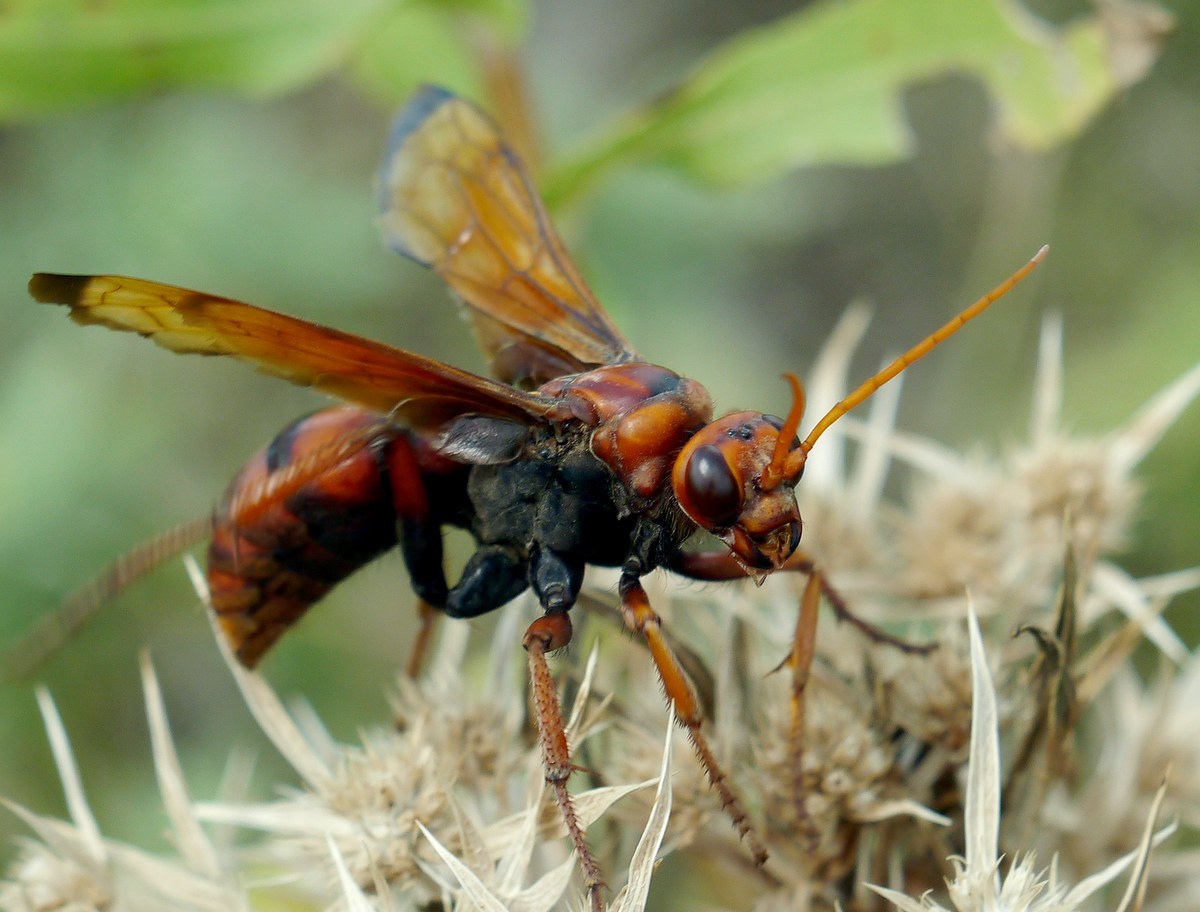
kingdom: Animalia
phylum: Arthropoda
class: Insecta
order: Hymenoptera
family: Pompilidae
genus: Cryptocheilus
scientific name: Cryptocheilus rubellus
